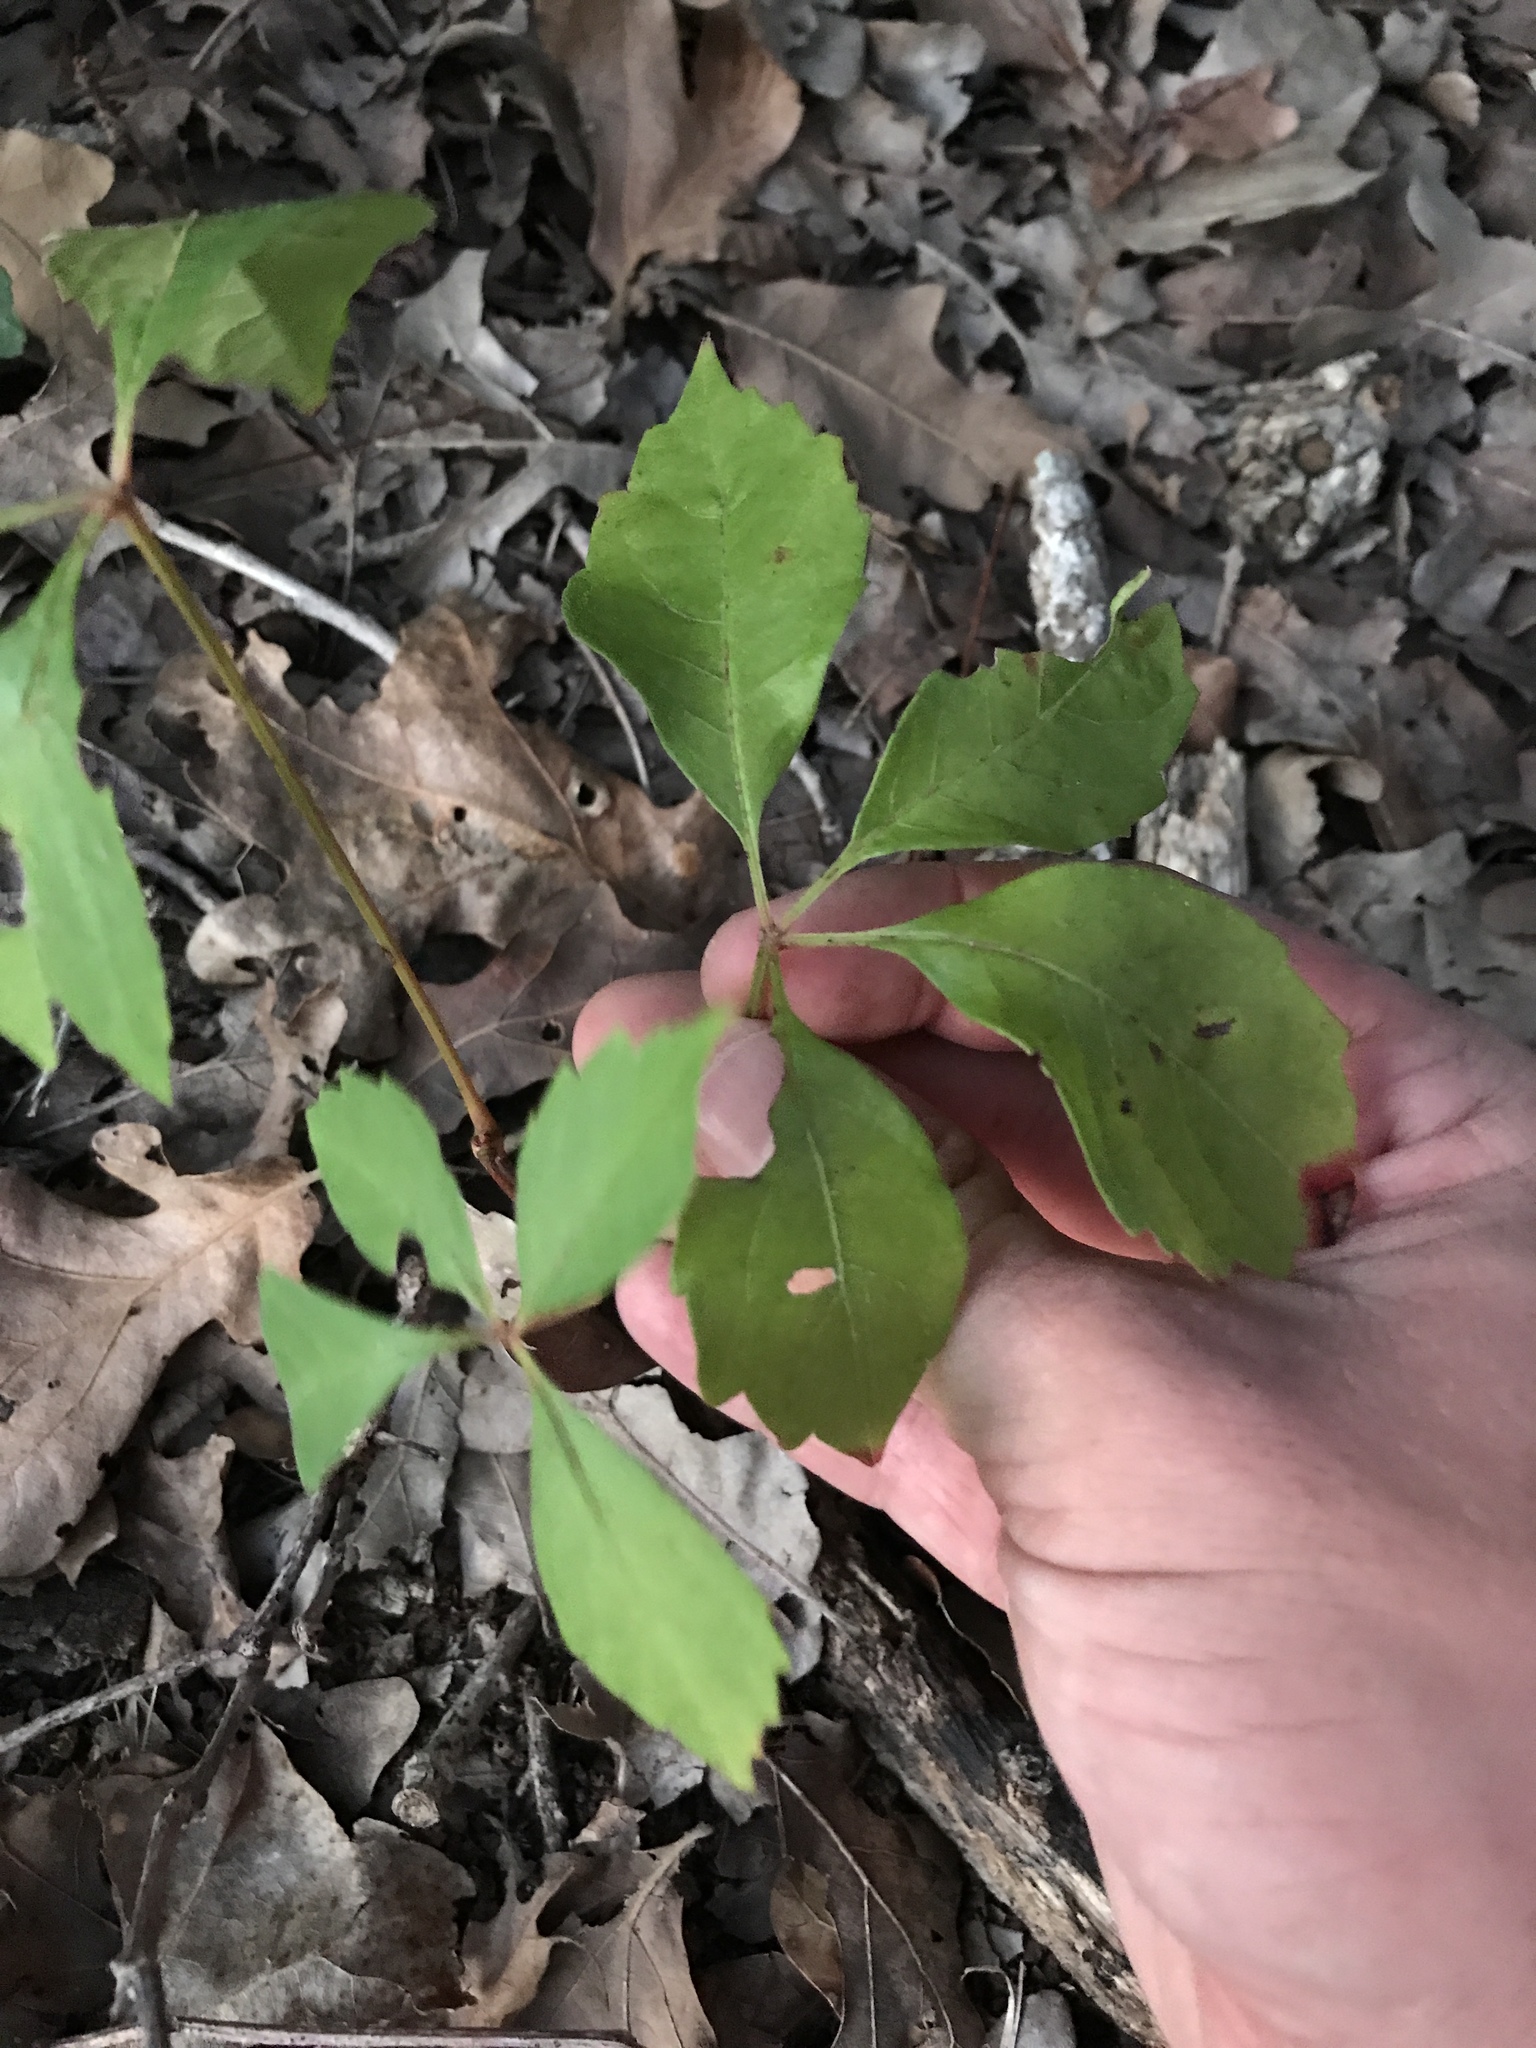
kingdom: Plantae
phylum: Tracheophyta
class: Magnoliopsida
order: Vitales
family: Vitaceae
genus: Parthenocissus
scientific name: Parthenocissus quinquefolia
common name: Virginia-creeper
